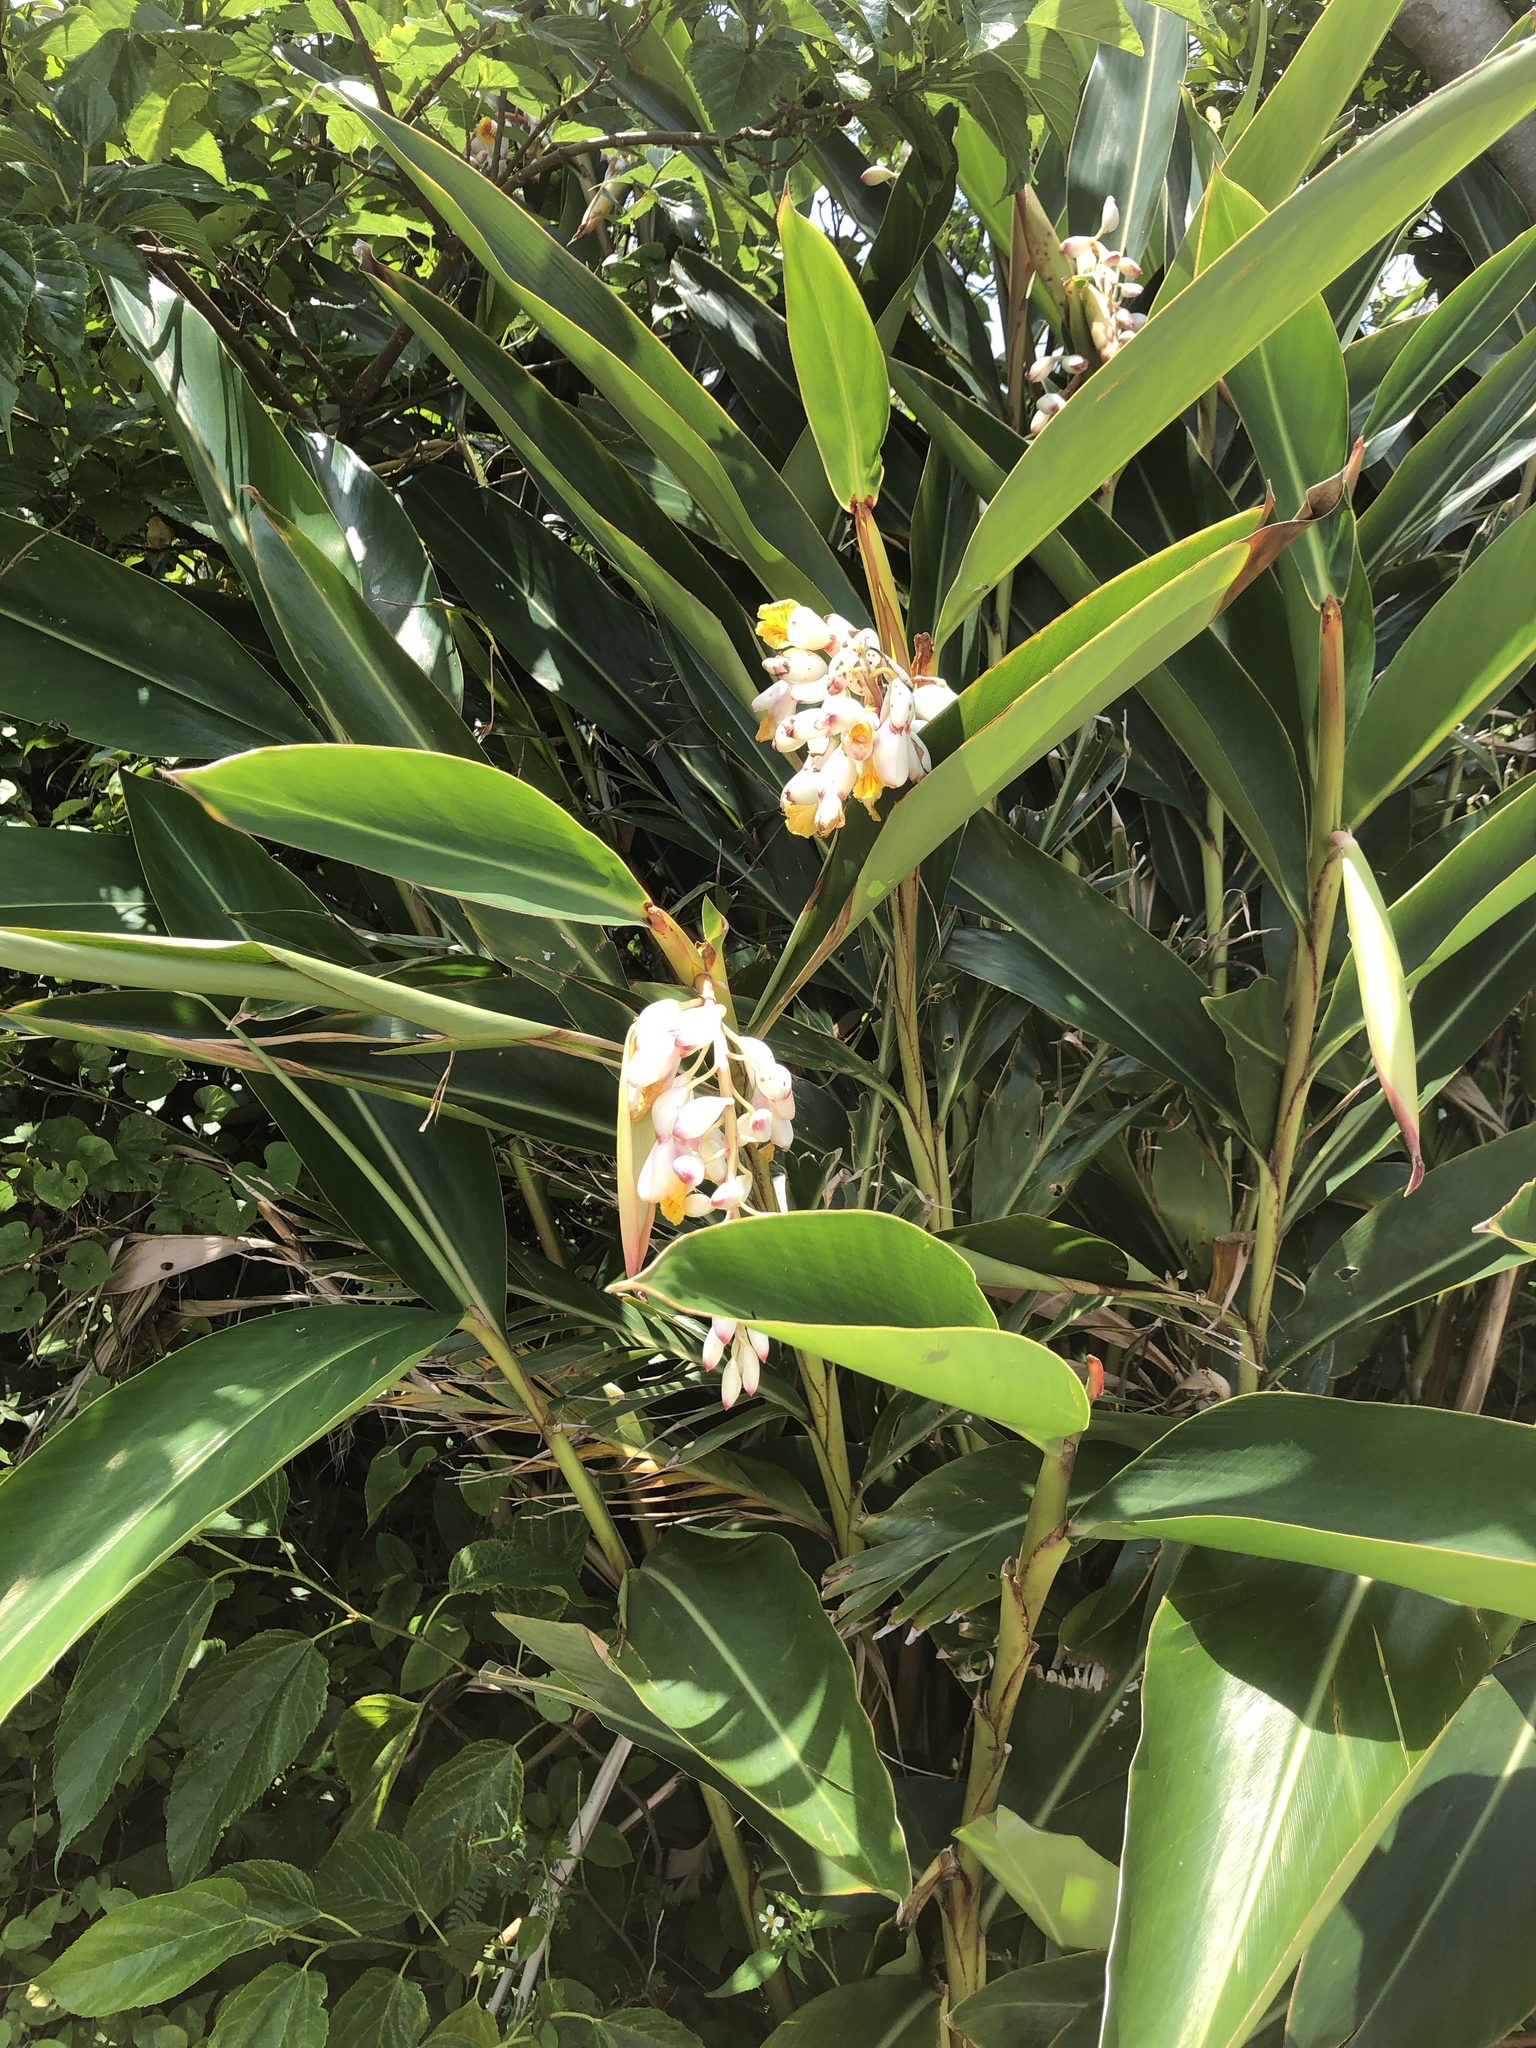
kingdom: Plantae
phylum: Tracheophyta
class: Liliopsida
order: Zingiberales
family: Zingiberaceae
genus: Alpinia
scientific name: Alpinia zerumbet
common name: Shellplant
